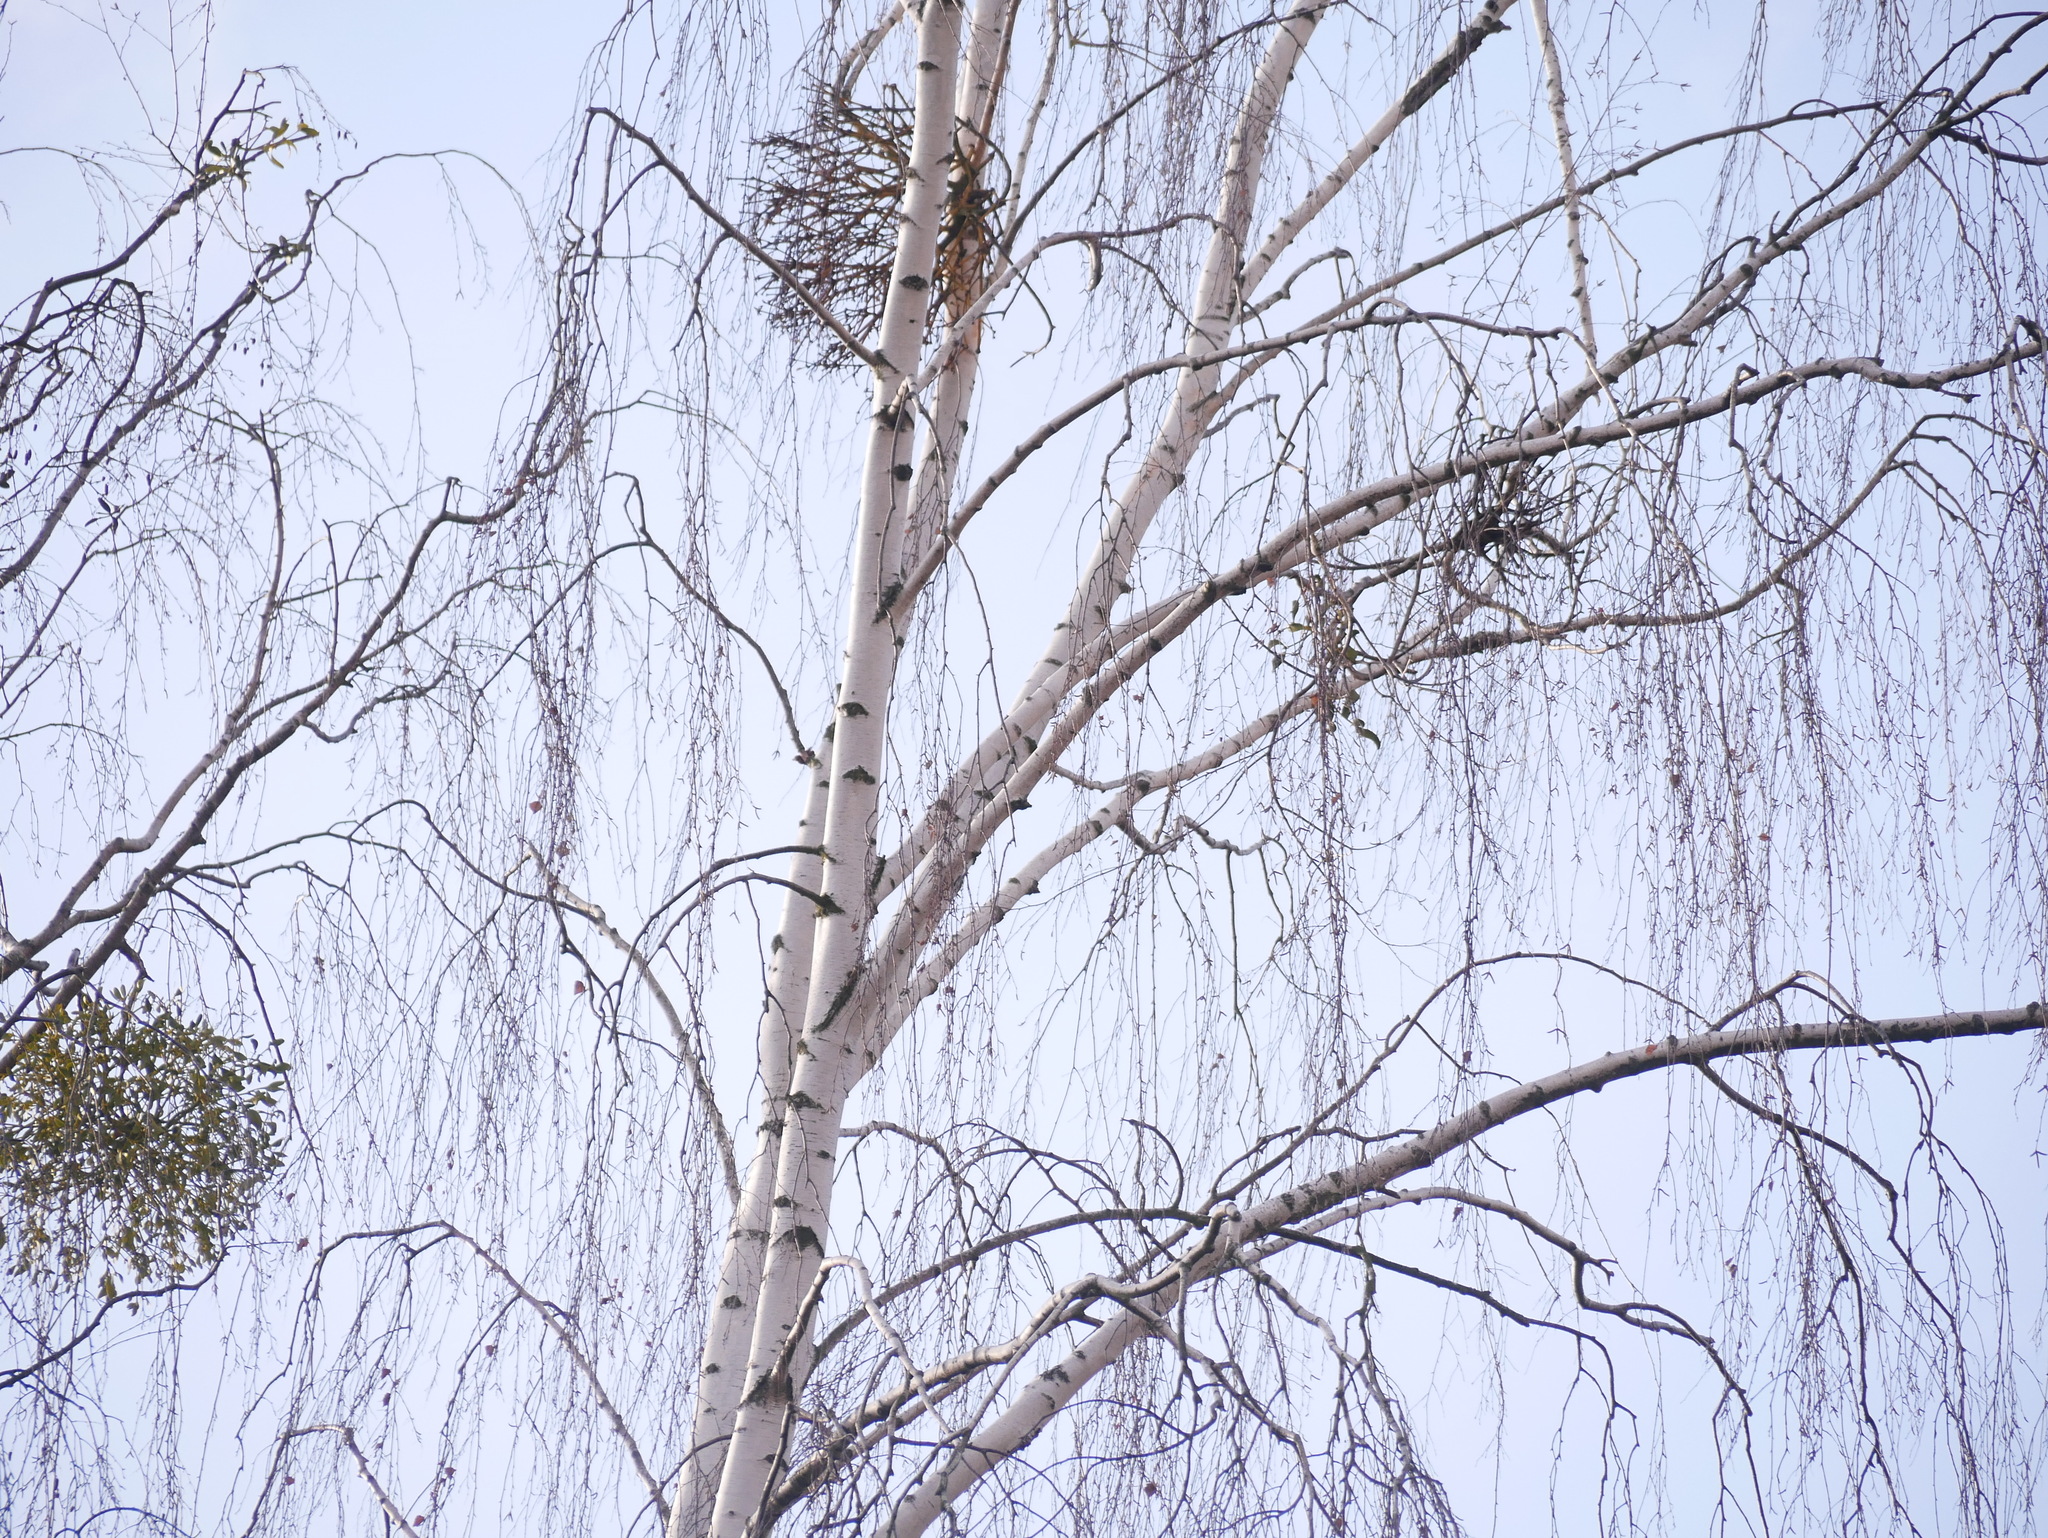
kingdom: Plantae
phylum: Tracheophyta
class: Magnoliopsida
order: Fagales
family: Betulaceae
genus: Betula
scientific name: Betula pendula
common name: Silver birch
